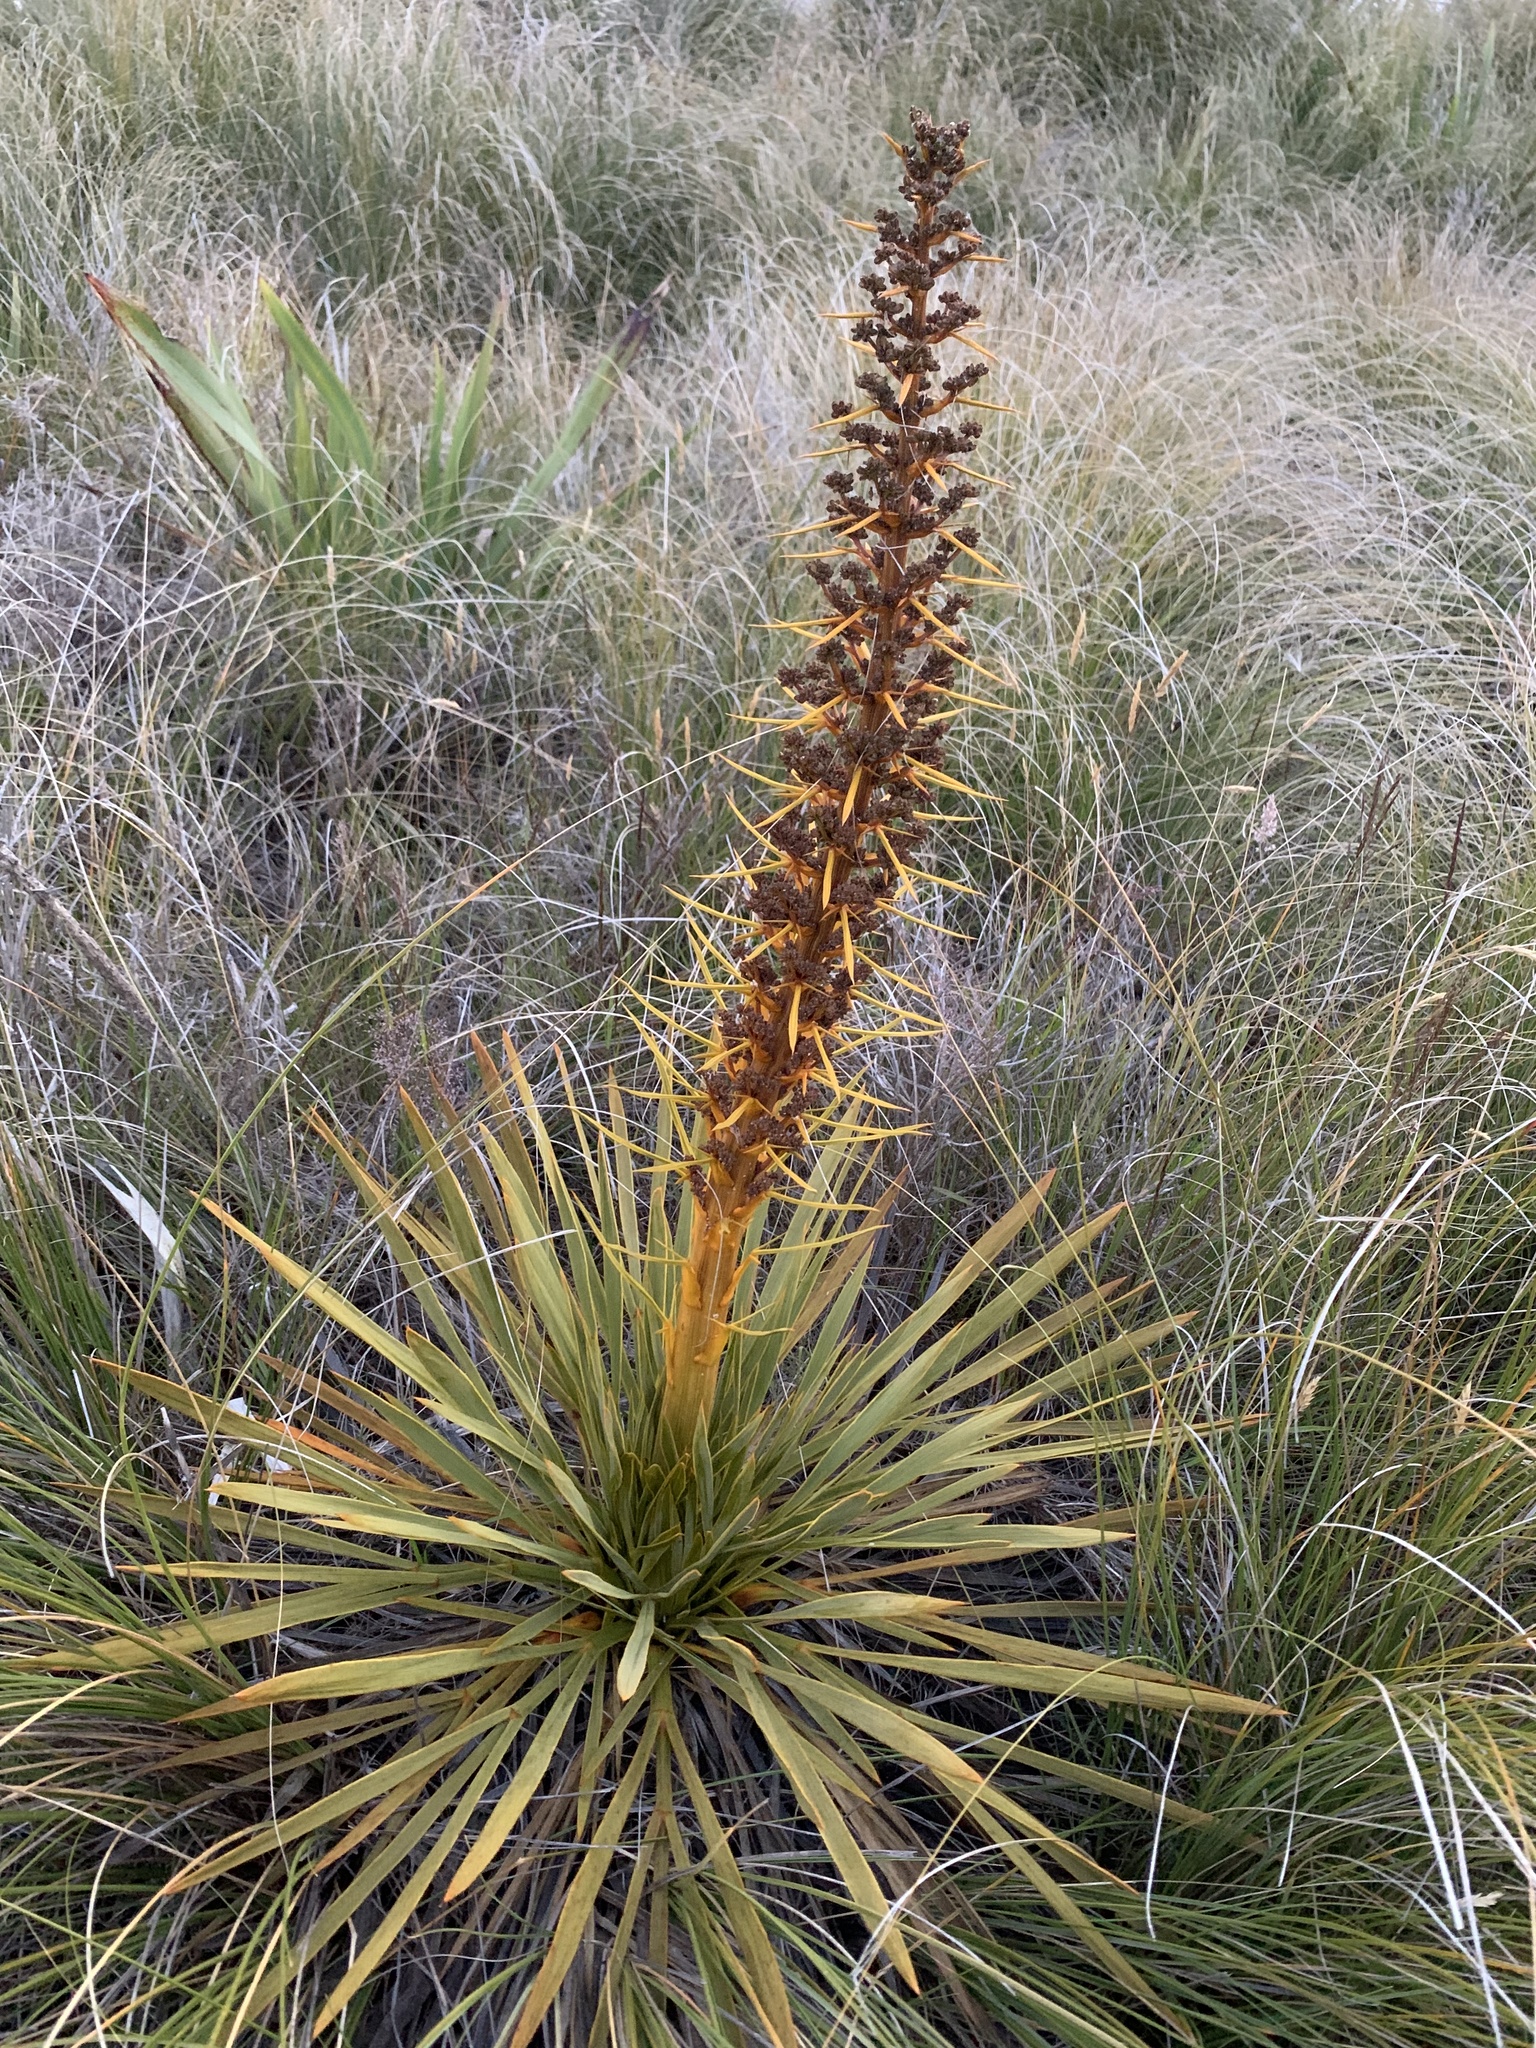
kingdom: Plantae
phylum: Tracheophyta
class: Magnoliopsida
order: Apiales
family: Apiaceae
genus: Aciphylla
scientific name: Aciphylla aurea
